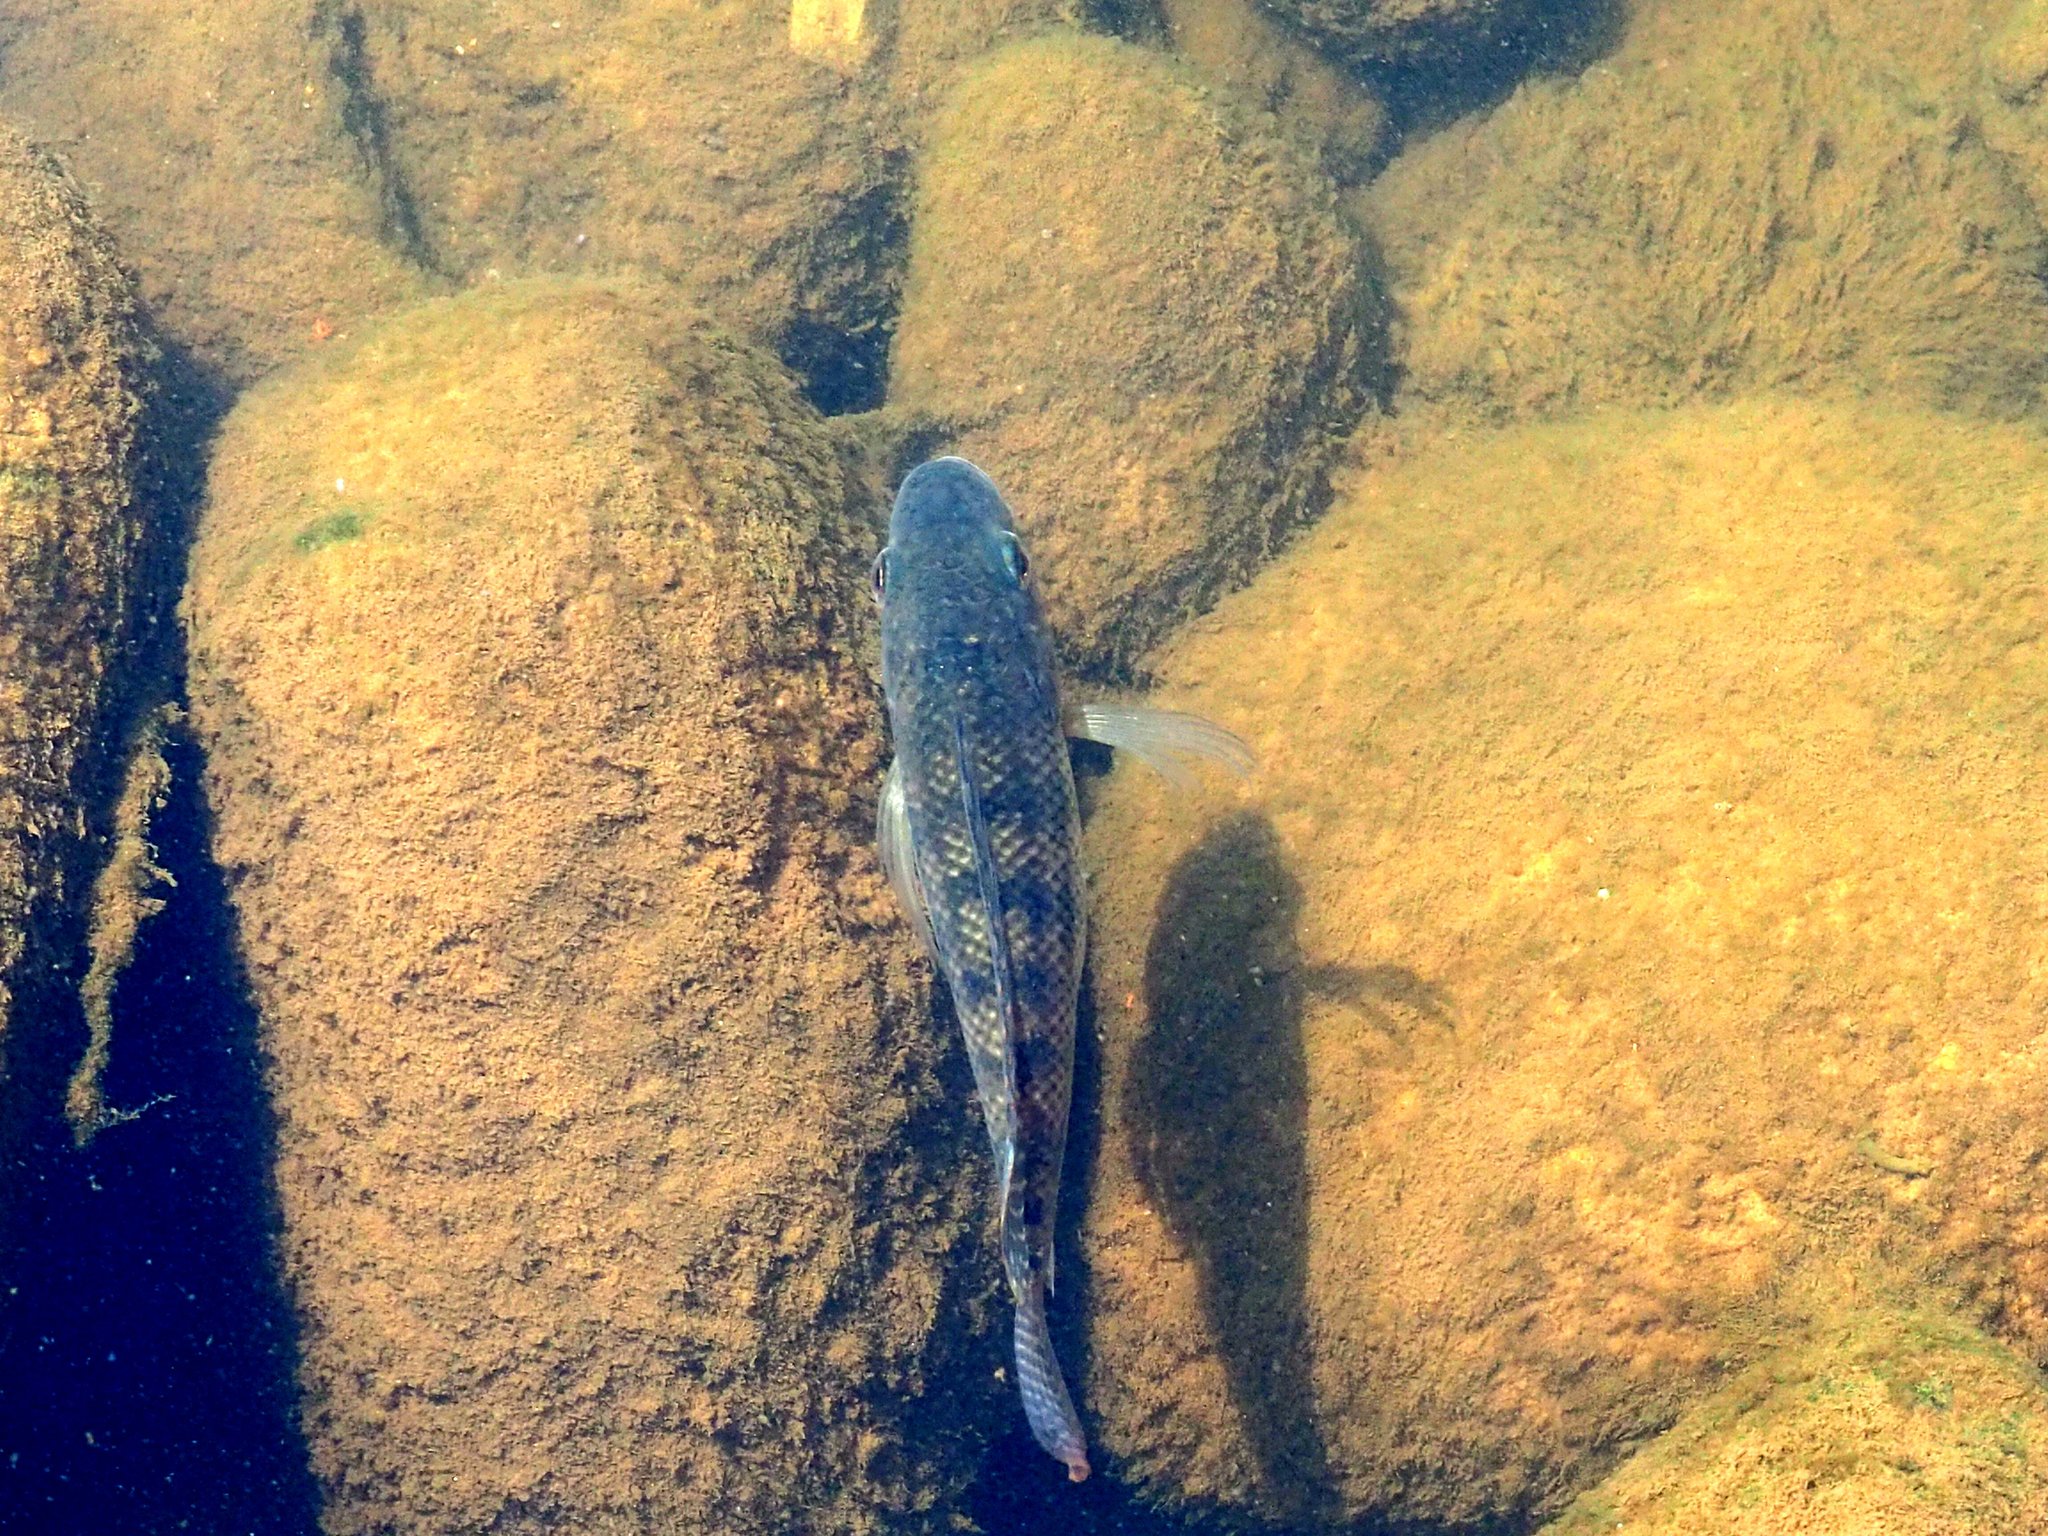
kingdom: Animalia
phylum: Chordata
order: Perciformes
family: Cichlidae
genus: Oreochromis
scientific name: Oreochromis niloticus
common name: Nile tilapia
